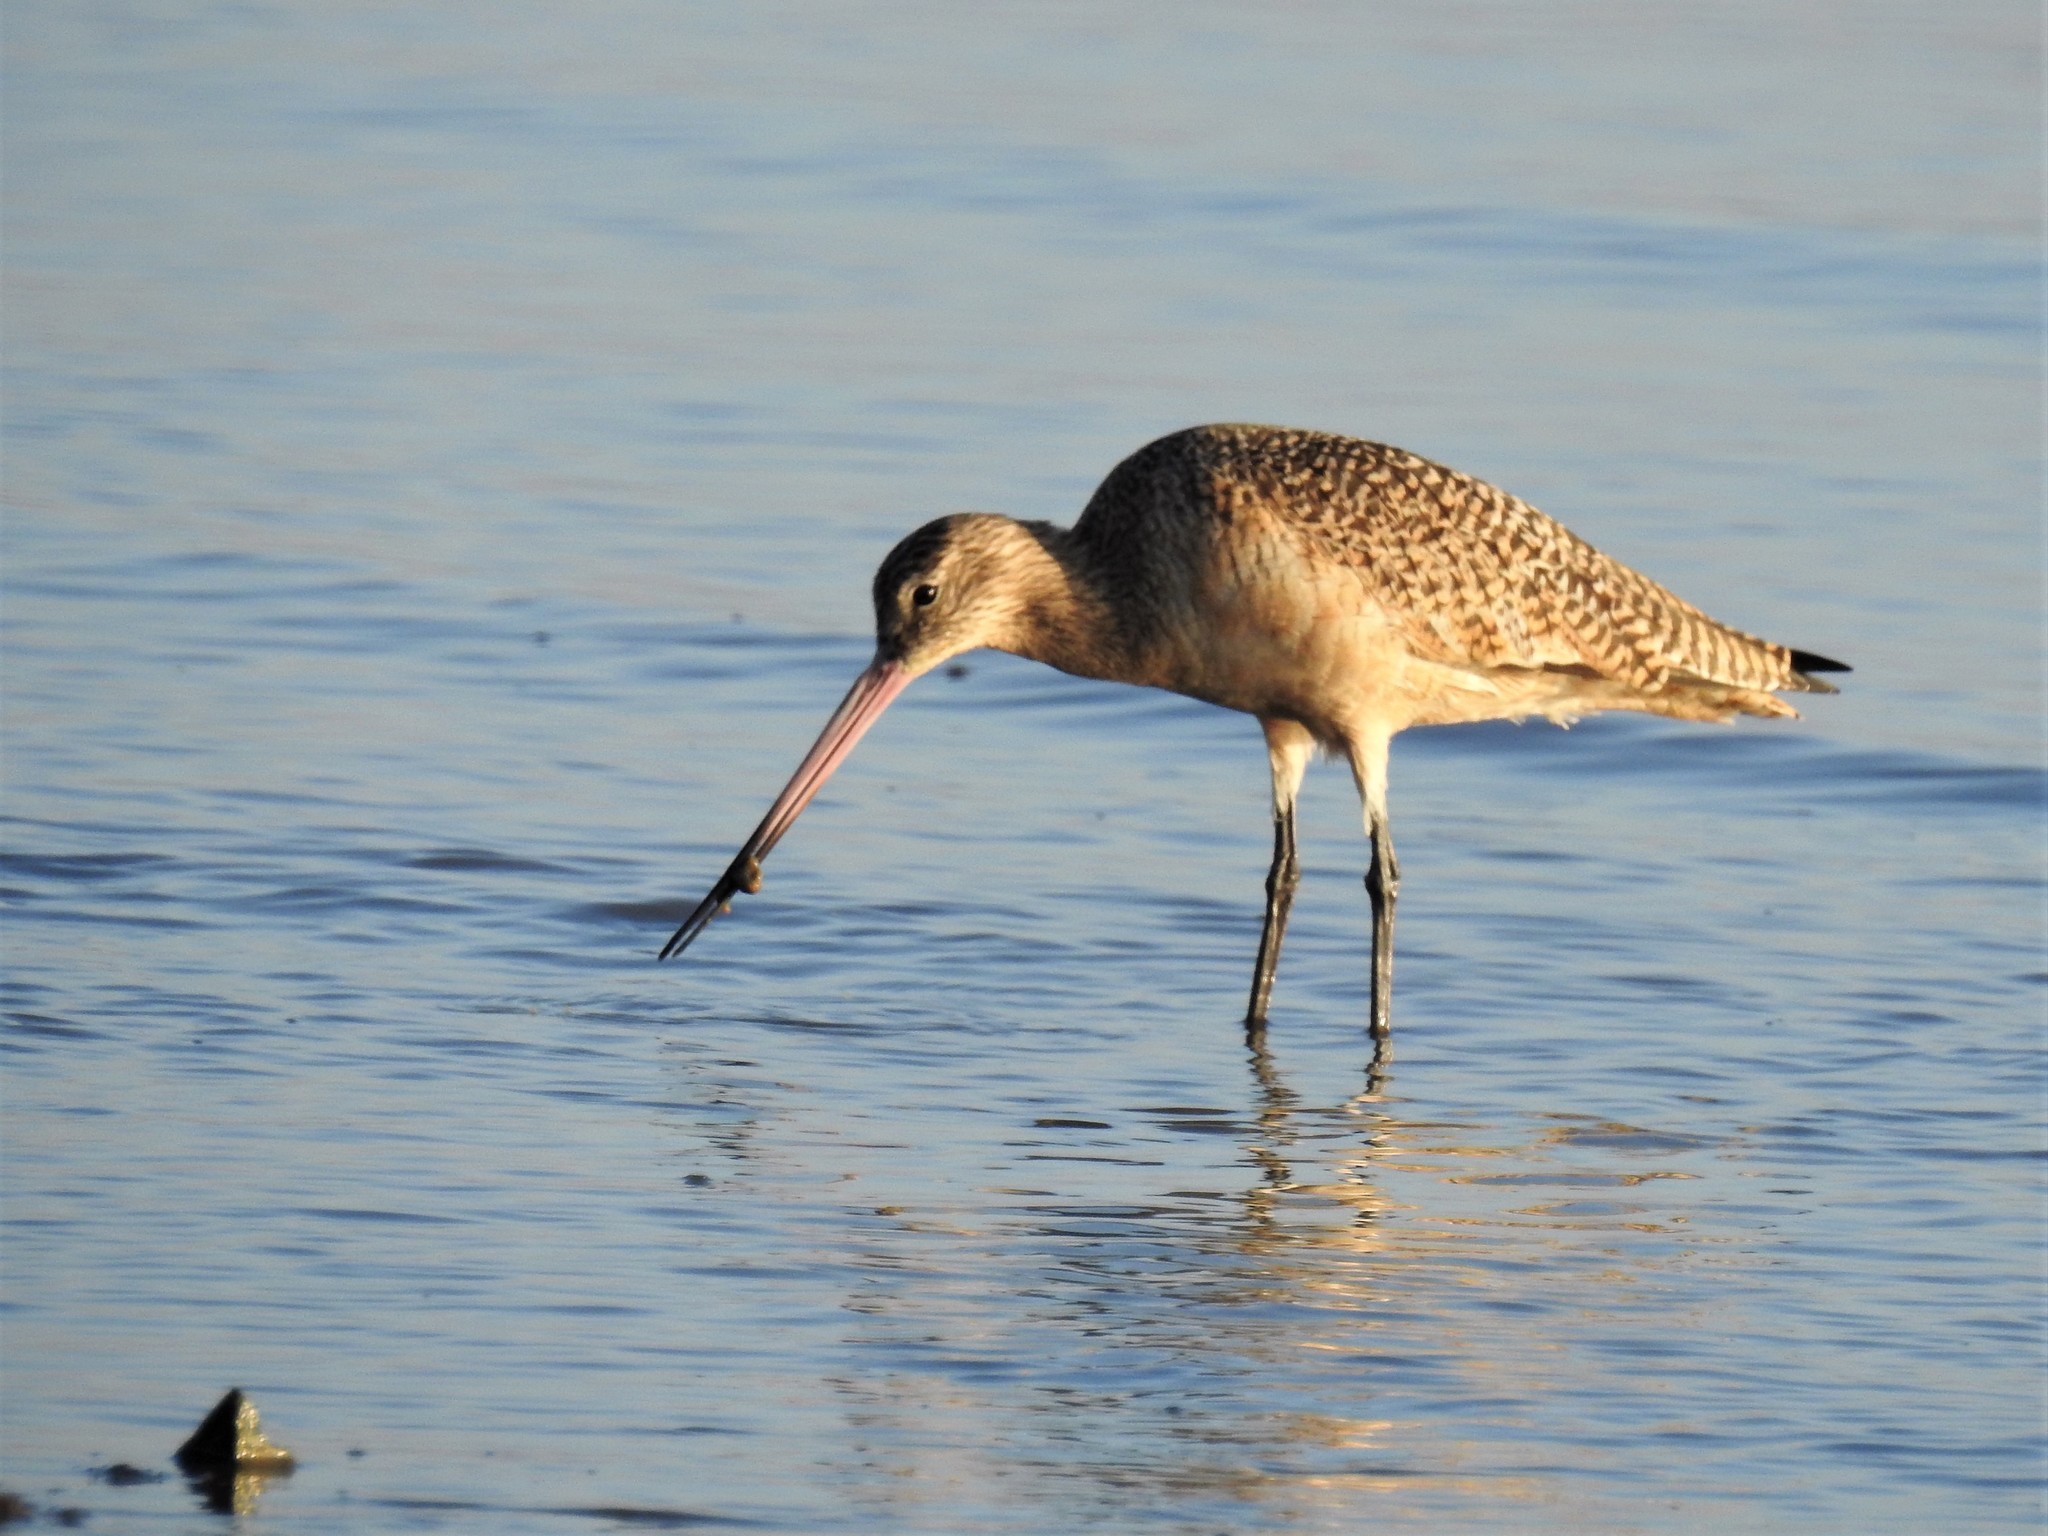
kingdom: Animalia
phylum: Chordata
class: Aves
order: Charadriiformes
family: Scolopacidae
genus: Limosa
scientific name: Limosa fedoa
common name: Marbled godwit
